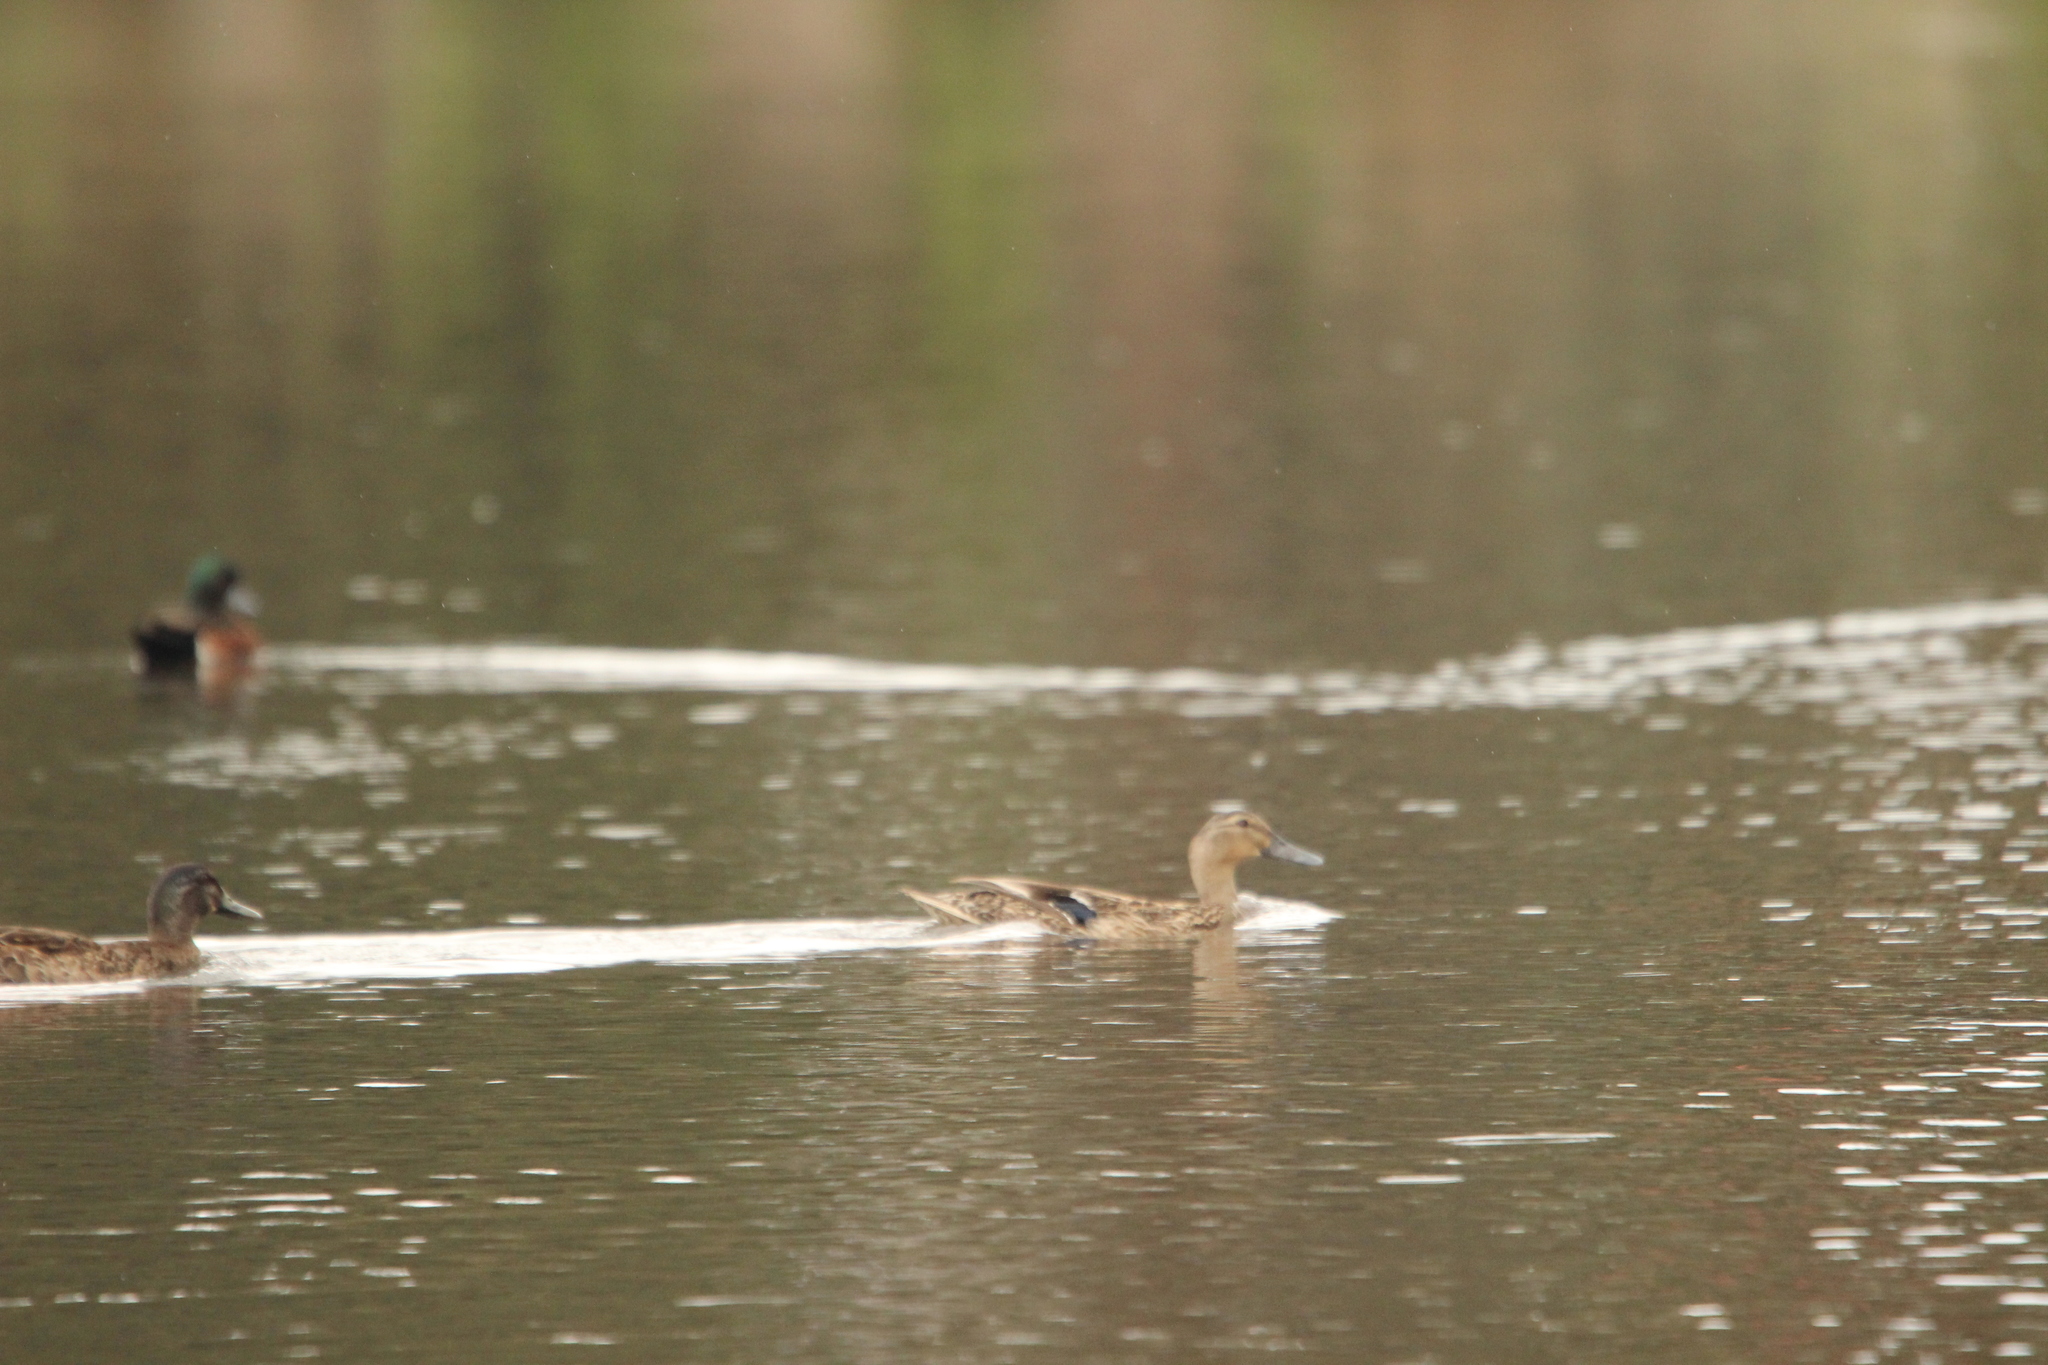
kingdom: Animalia
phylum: Chordata
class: Aves
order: Anseriformes
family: Anatidae
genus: Anas
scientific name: Anas
